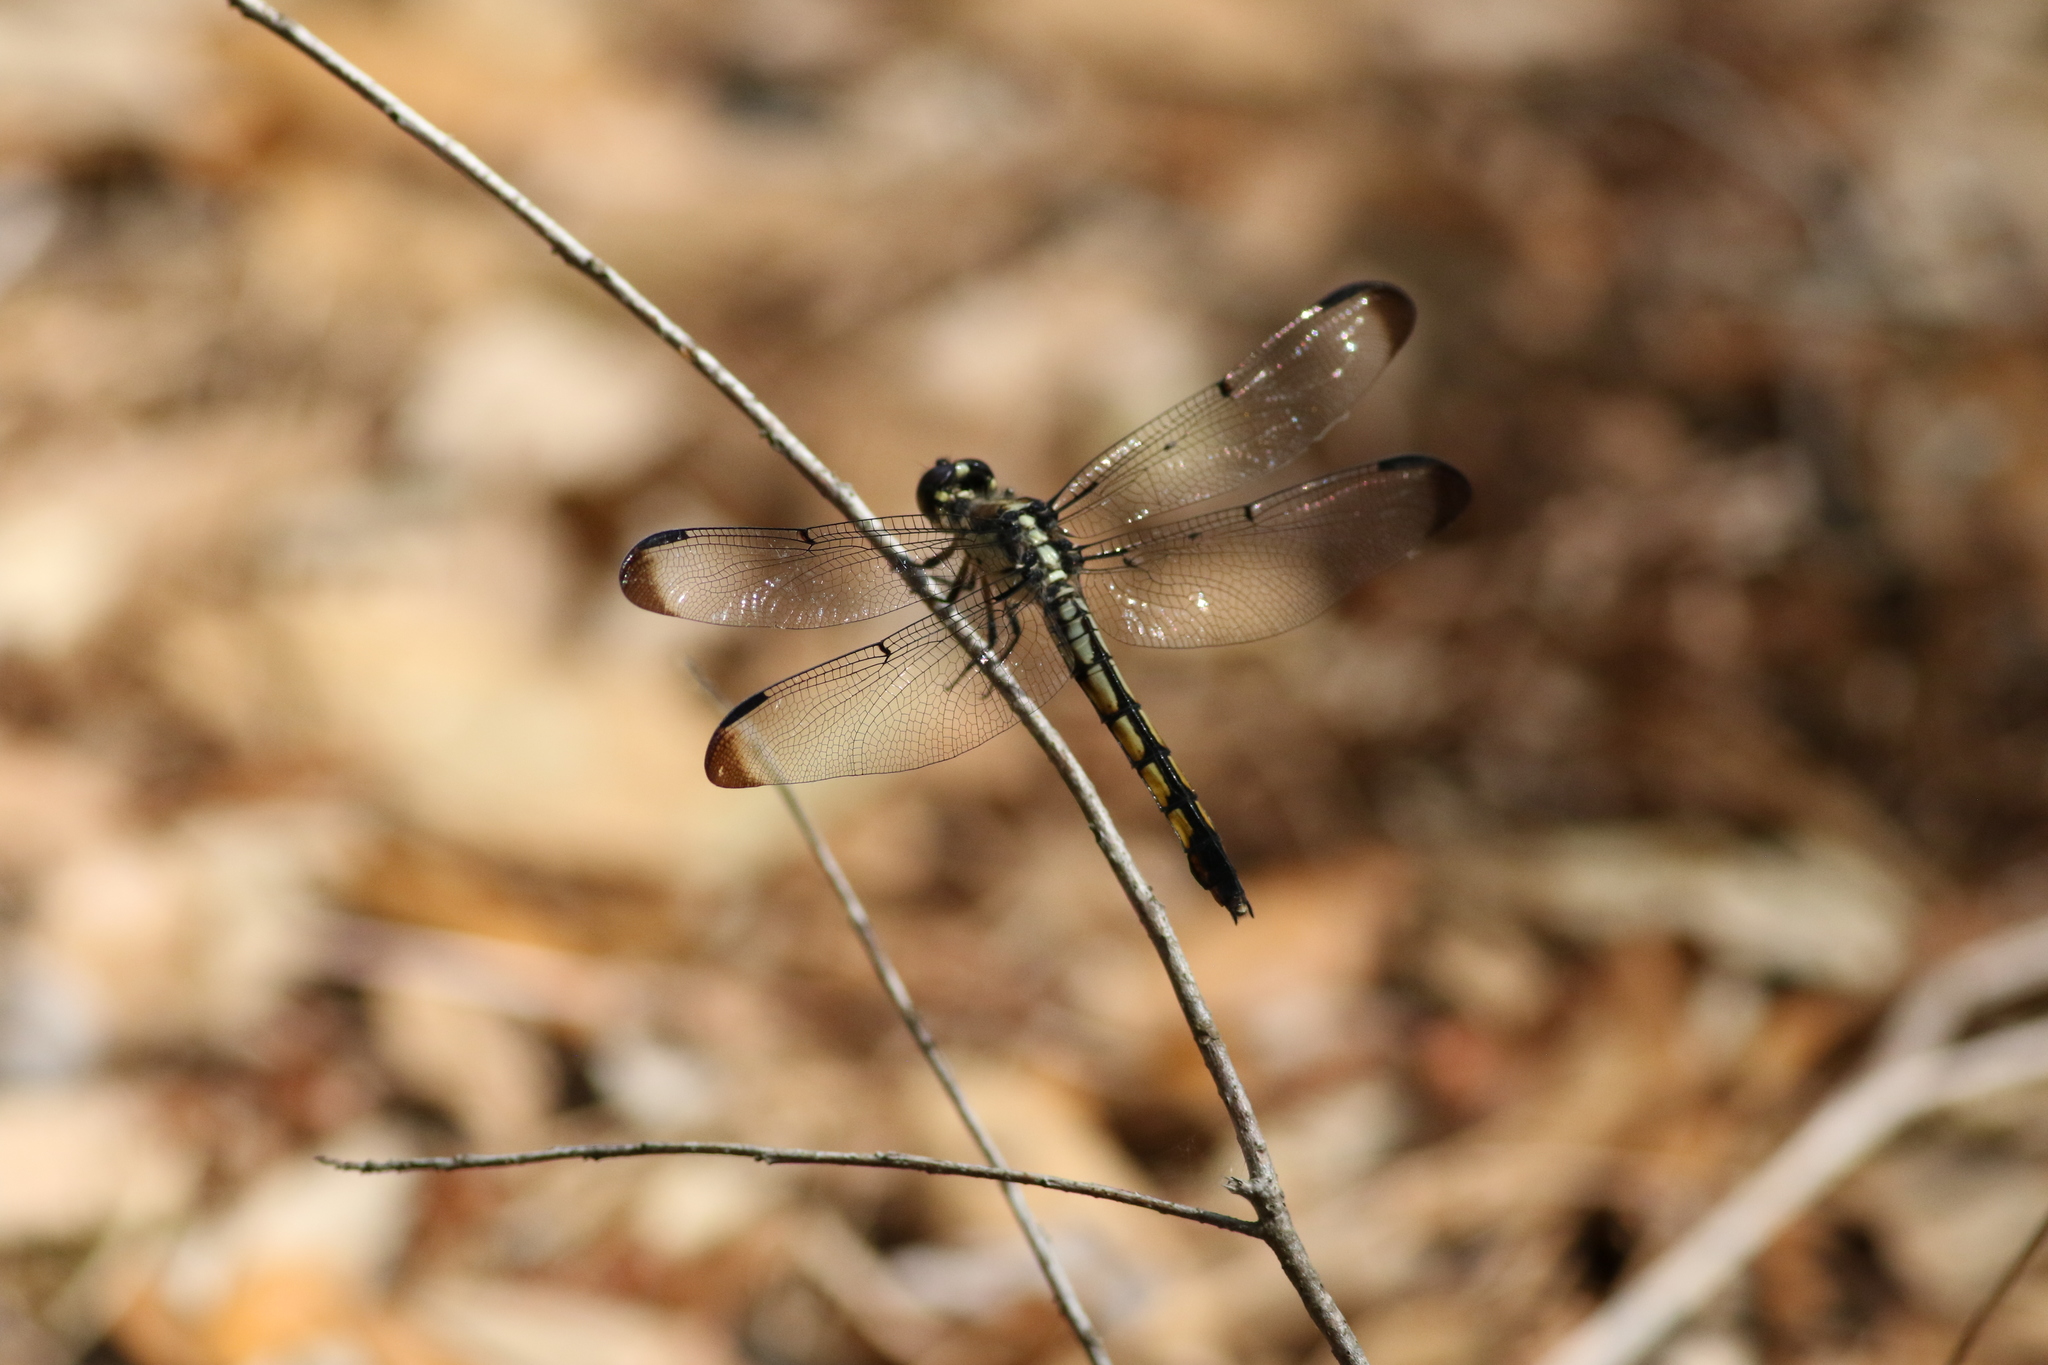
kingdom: Animalia
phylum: Arthropoda
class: Insecta
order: Odonata
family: Libellulidae
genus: Libellula
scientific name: Libellula vibrans
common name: Great blue skimmer
